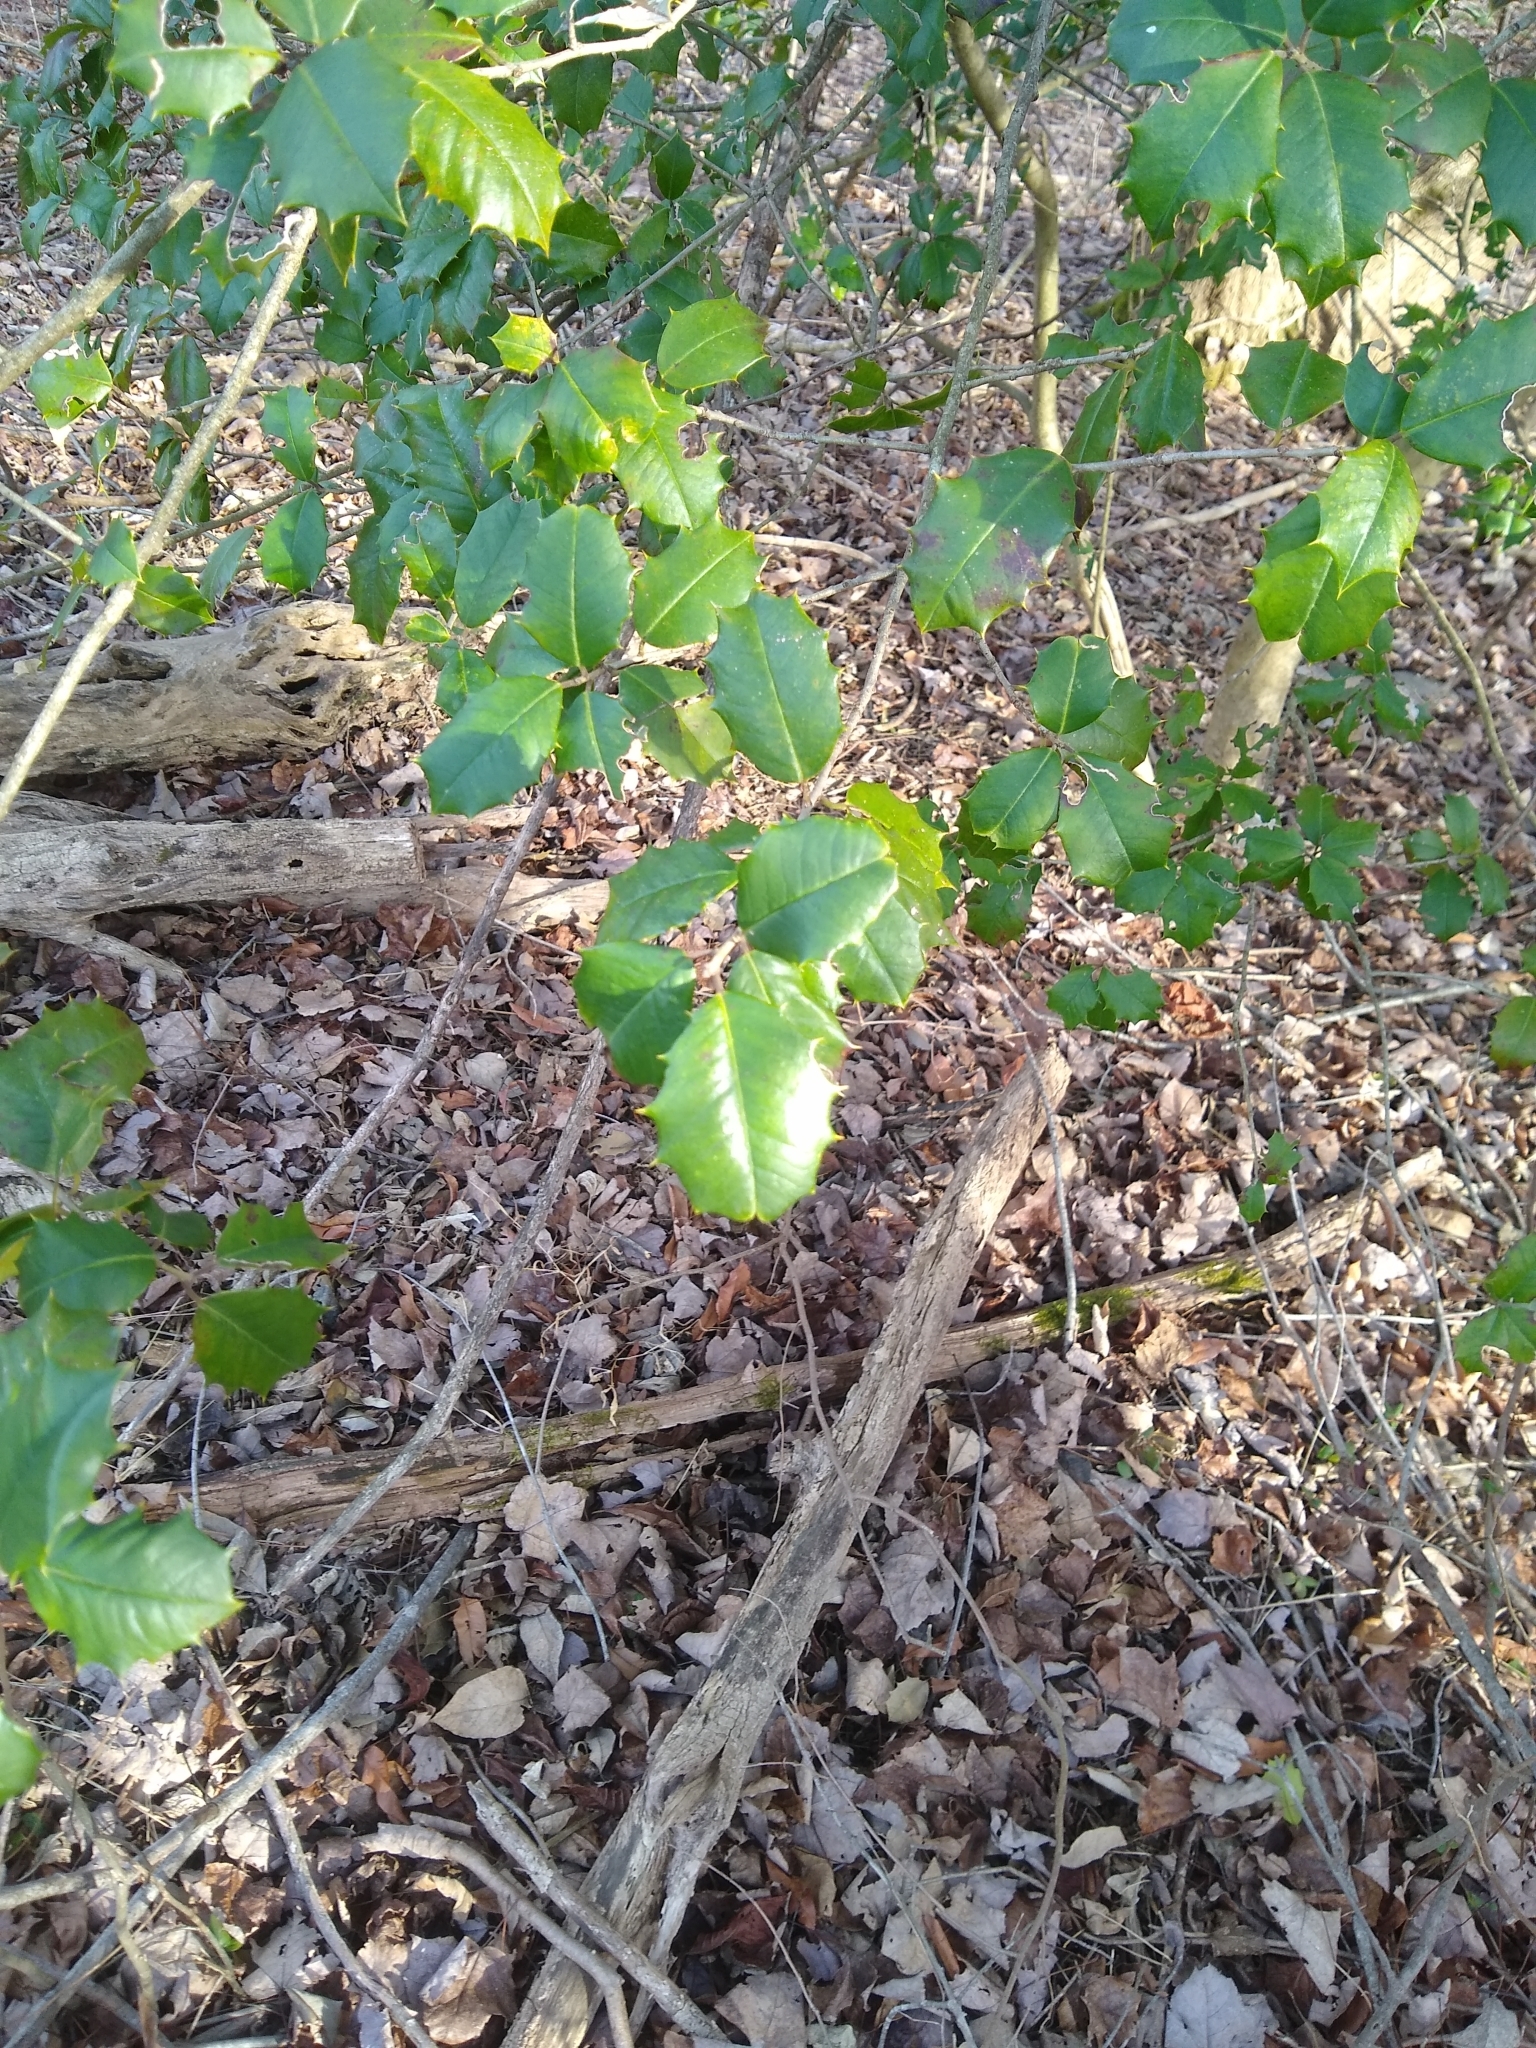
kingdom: Plantae
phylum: Tracheophyta
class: Magnoliopsida
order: Aquifoliales
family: Aquifoliaceae
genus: Ilex
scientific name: Ilex opaca
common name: American holly
